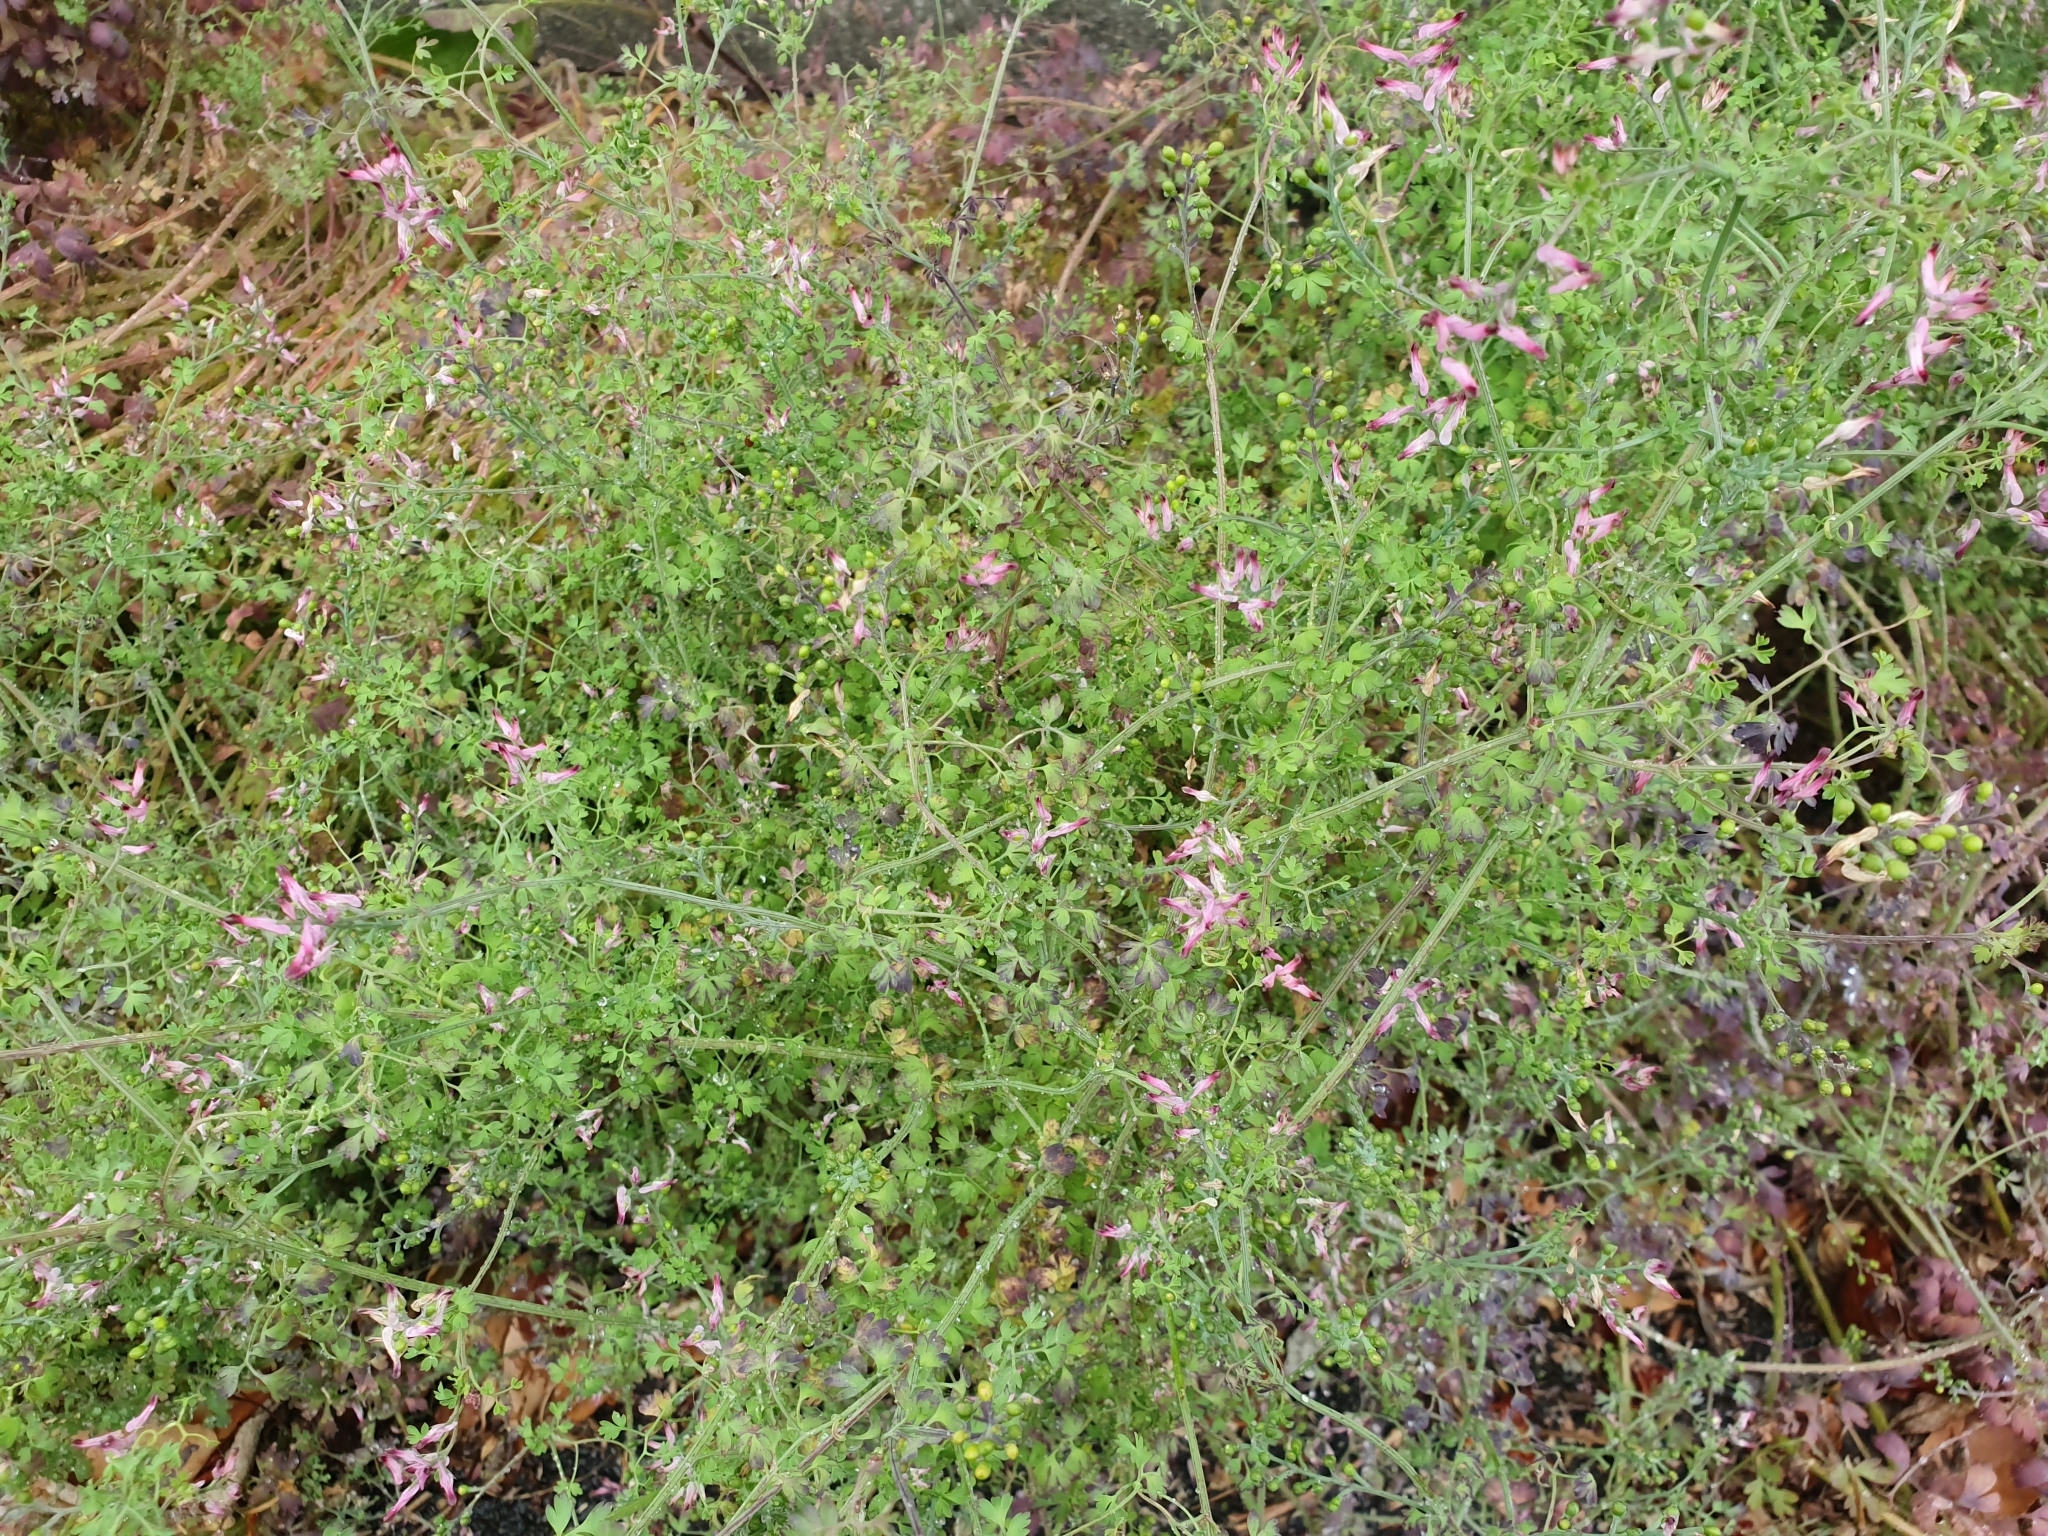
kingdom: Plantae
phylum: Tracheophyta
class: Magnoliopsida
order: Ranunculales
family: Papaveraceae
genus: Fumaria
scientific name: Fumaria muralis
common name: Common ramping-fumitory
